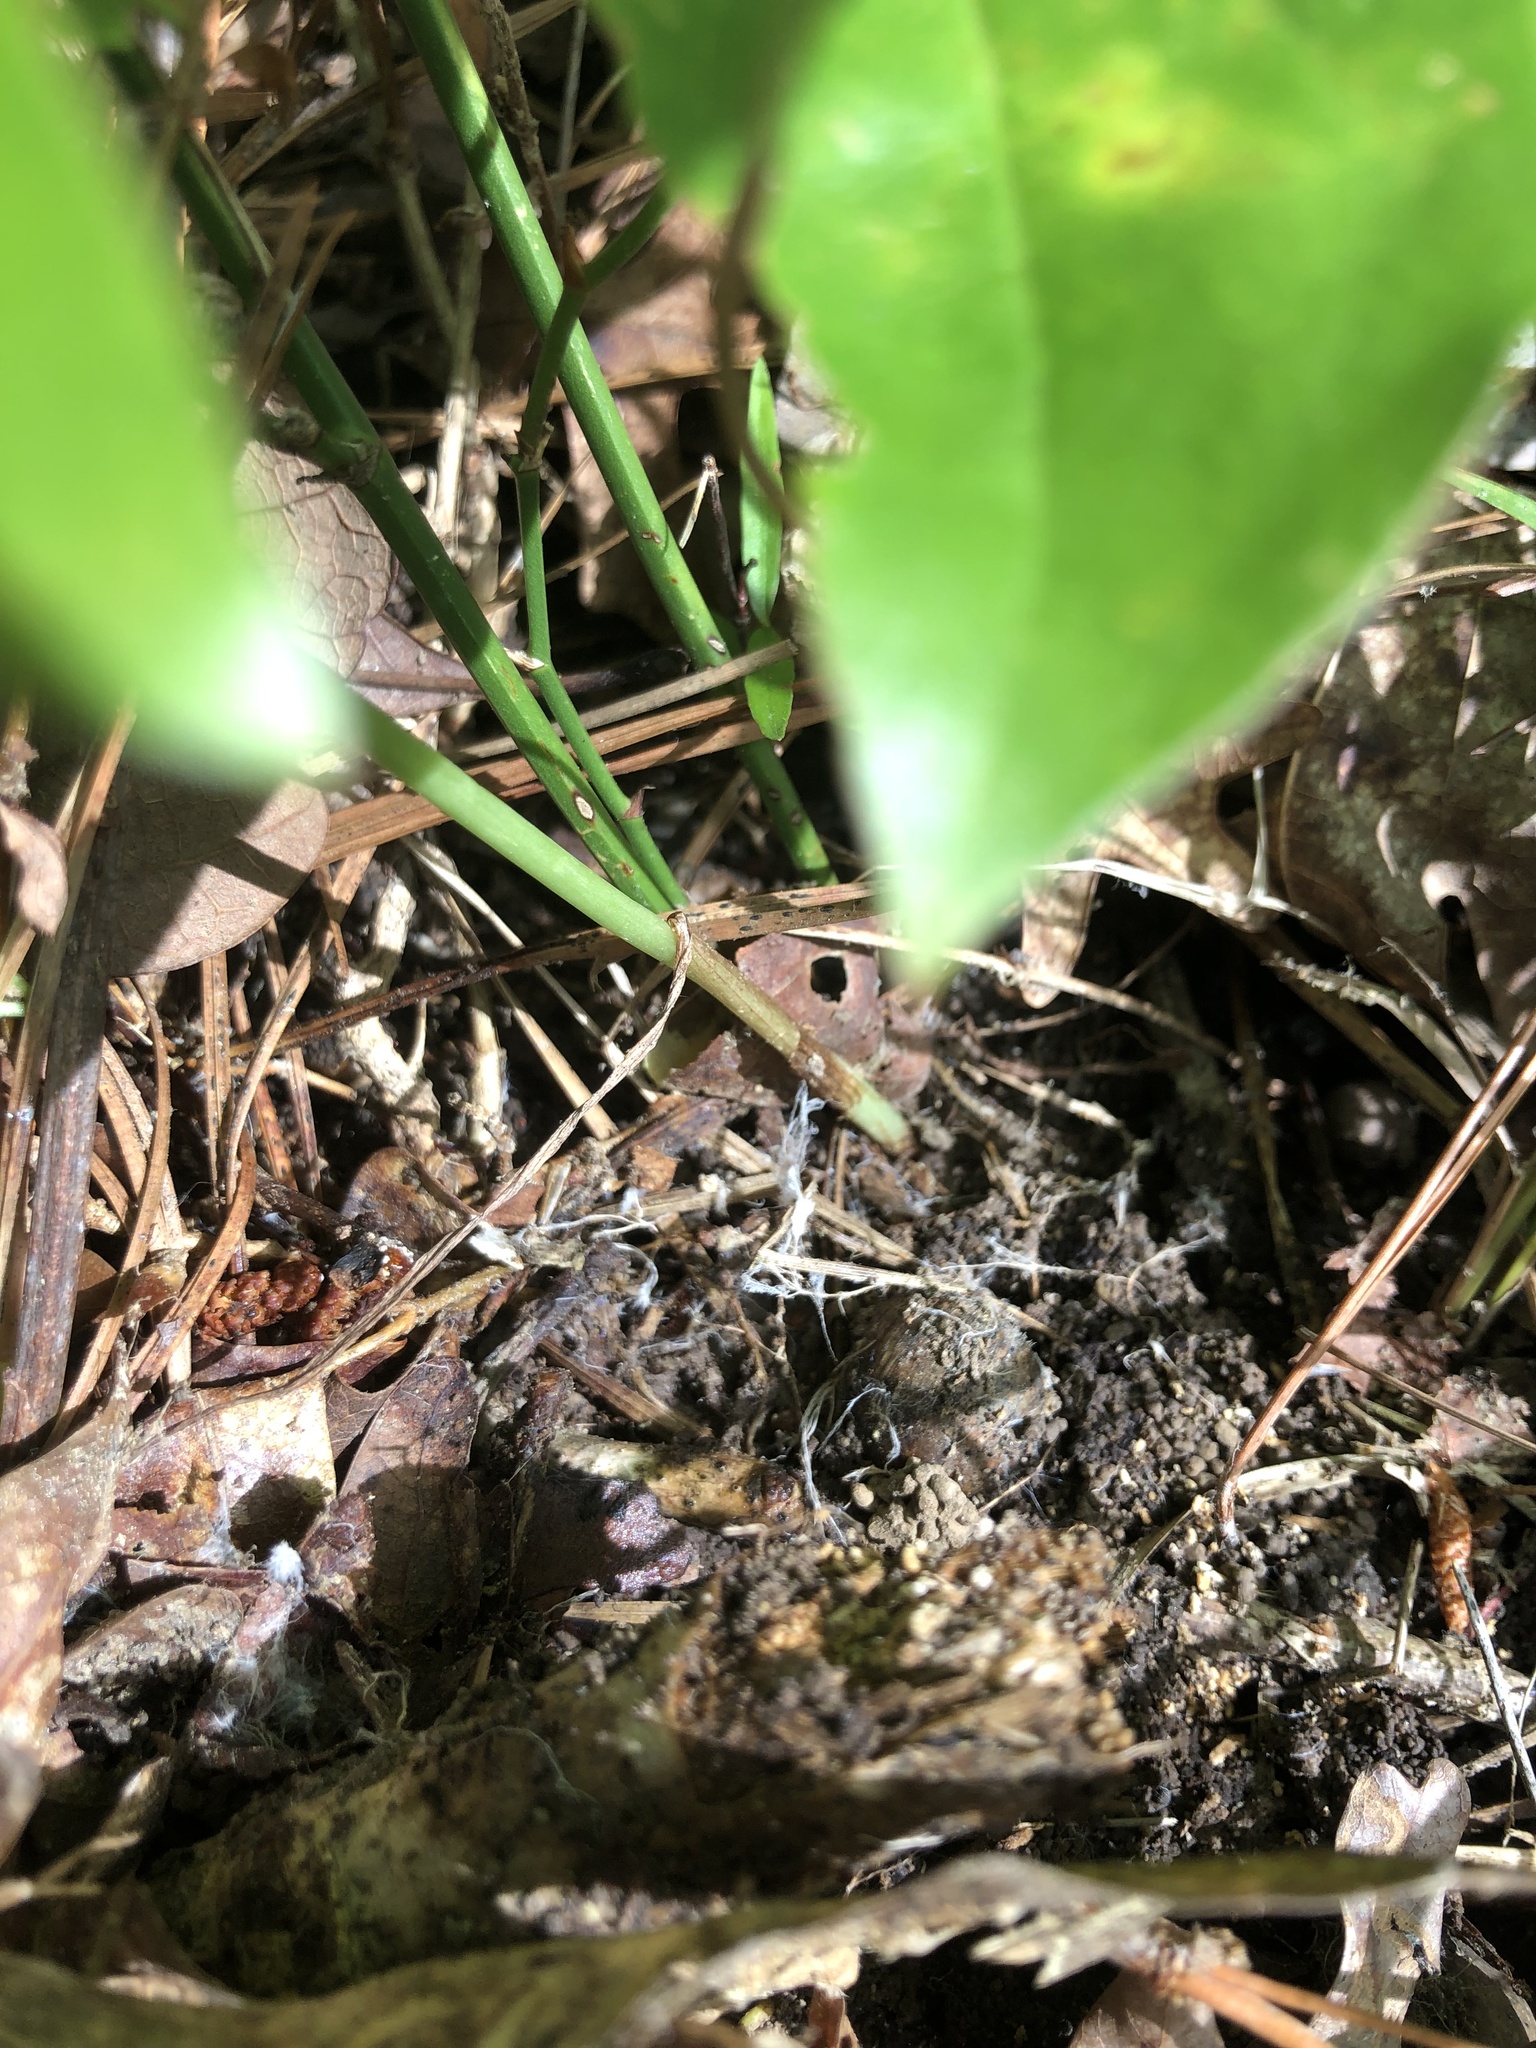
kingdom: Plantae
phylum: Tracheophyta
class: Liliopsida
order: Asparagales
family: Orchidaceae
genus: Spiranthes
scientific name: Spiranthes sylvatica
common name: Woodland lady's tresses
